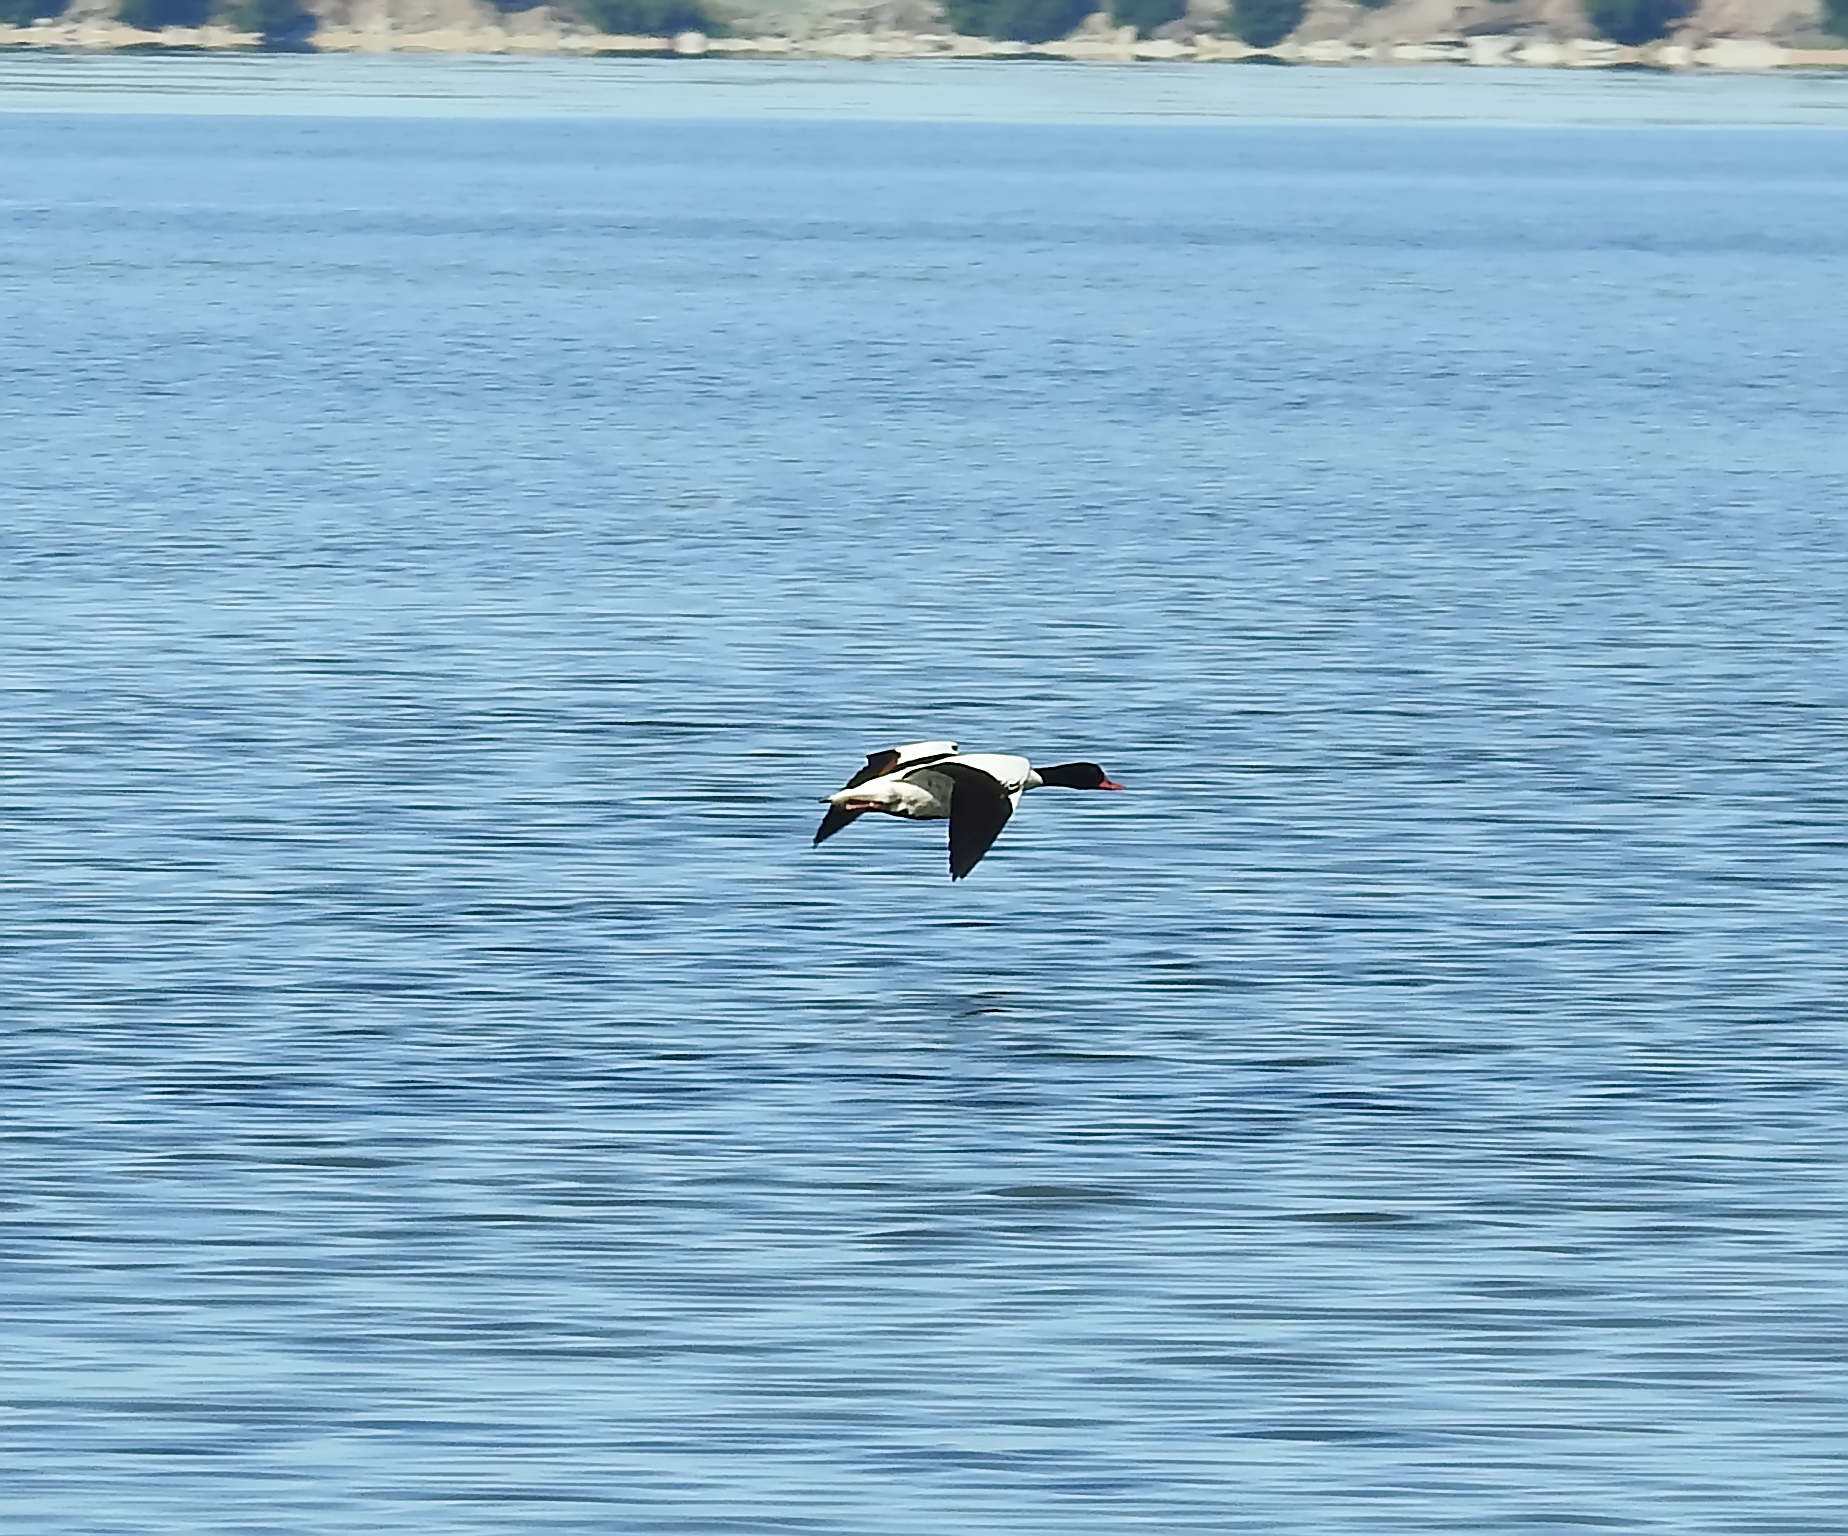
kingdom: Animalia
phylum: Chordata
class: Aves
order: Anseriformes
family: Anatidae
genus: Tadorna
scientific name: Tadorna tadorna
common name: Common shelduck
